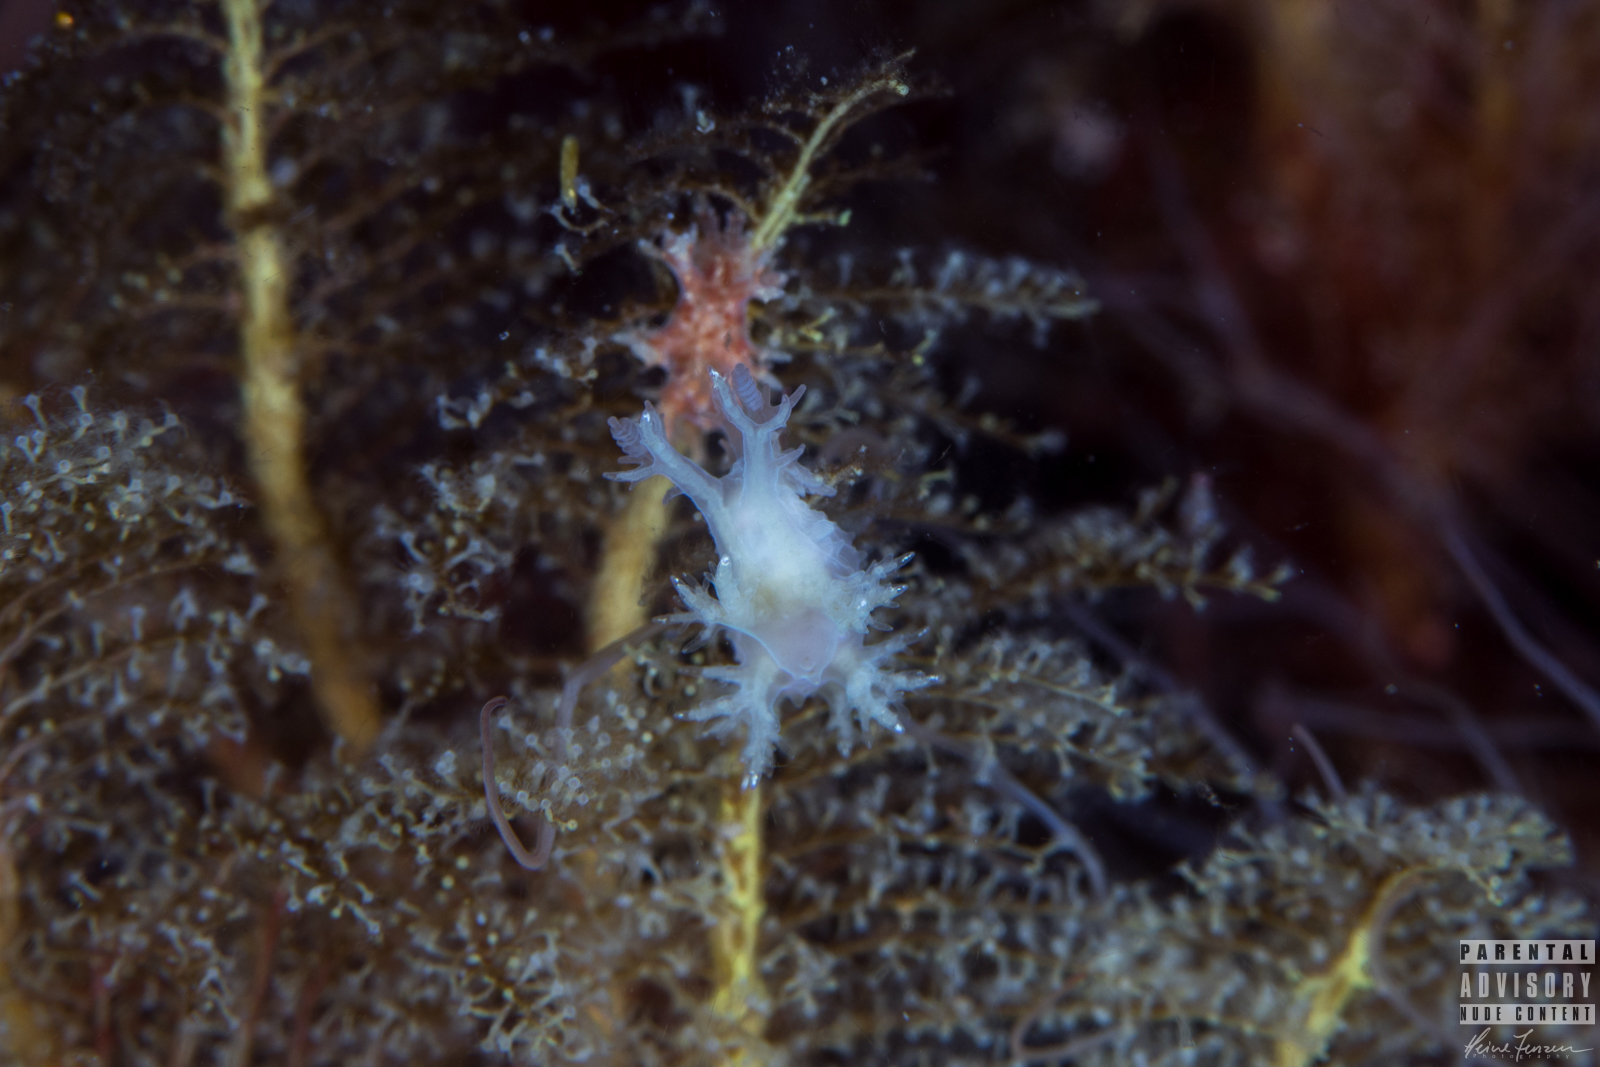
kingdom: Animalia
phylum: Mollusca
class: Gastropoda
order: Nudibranchia
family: Dendronotidae
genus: Dendronotus
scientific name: Dendronotus frondosus
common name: Bushy-backed nudibranch
